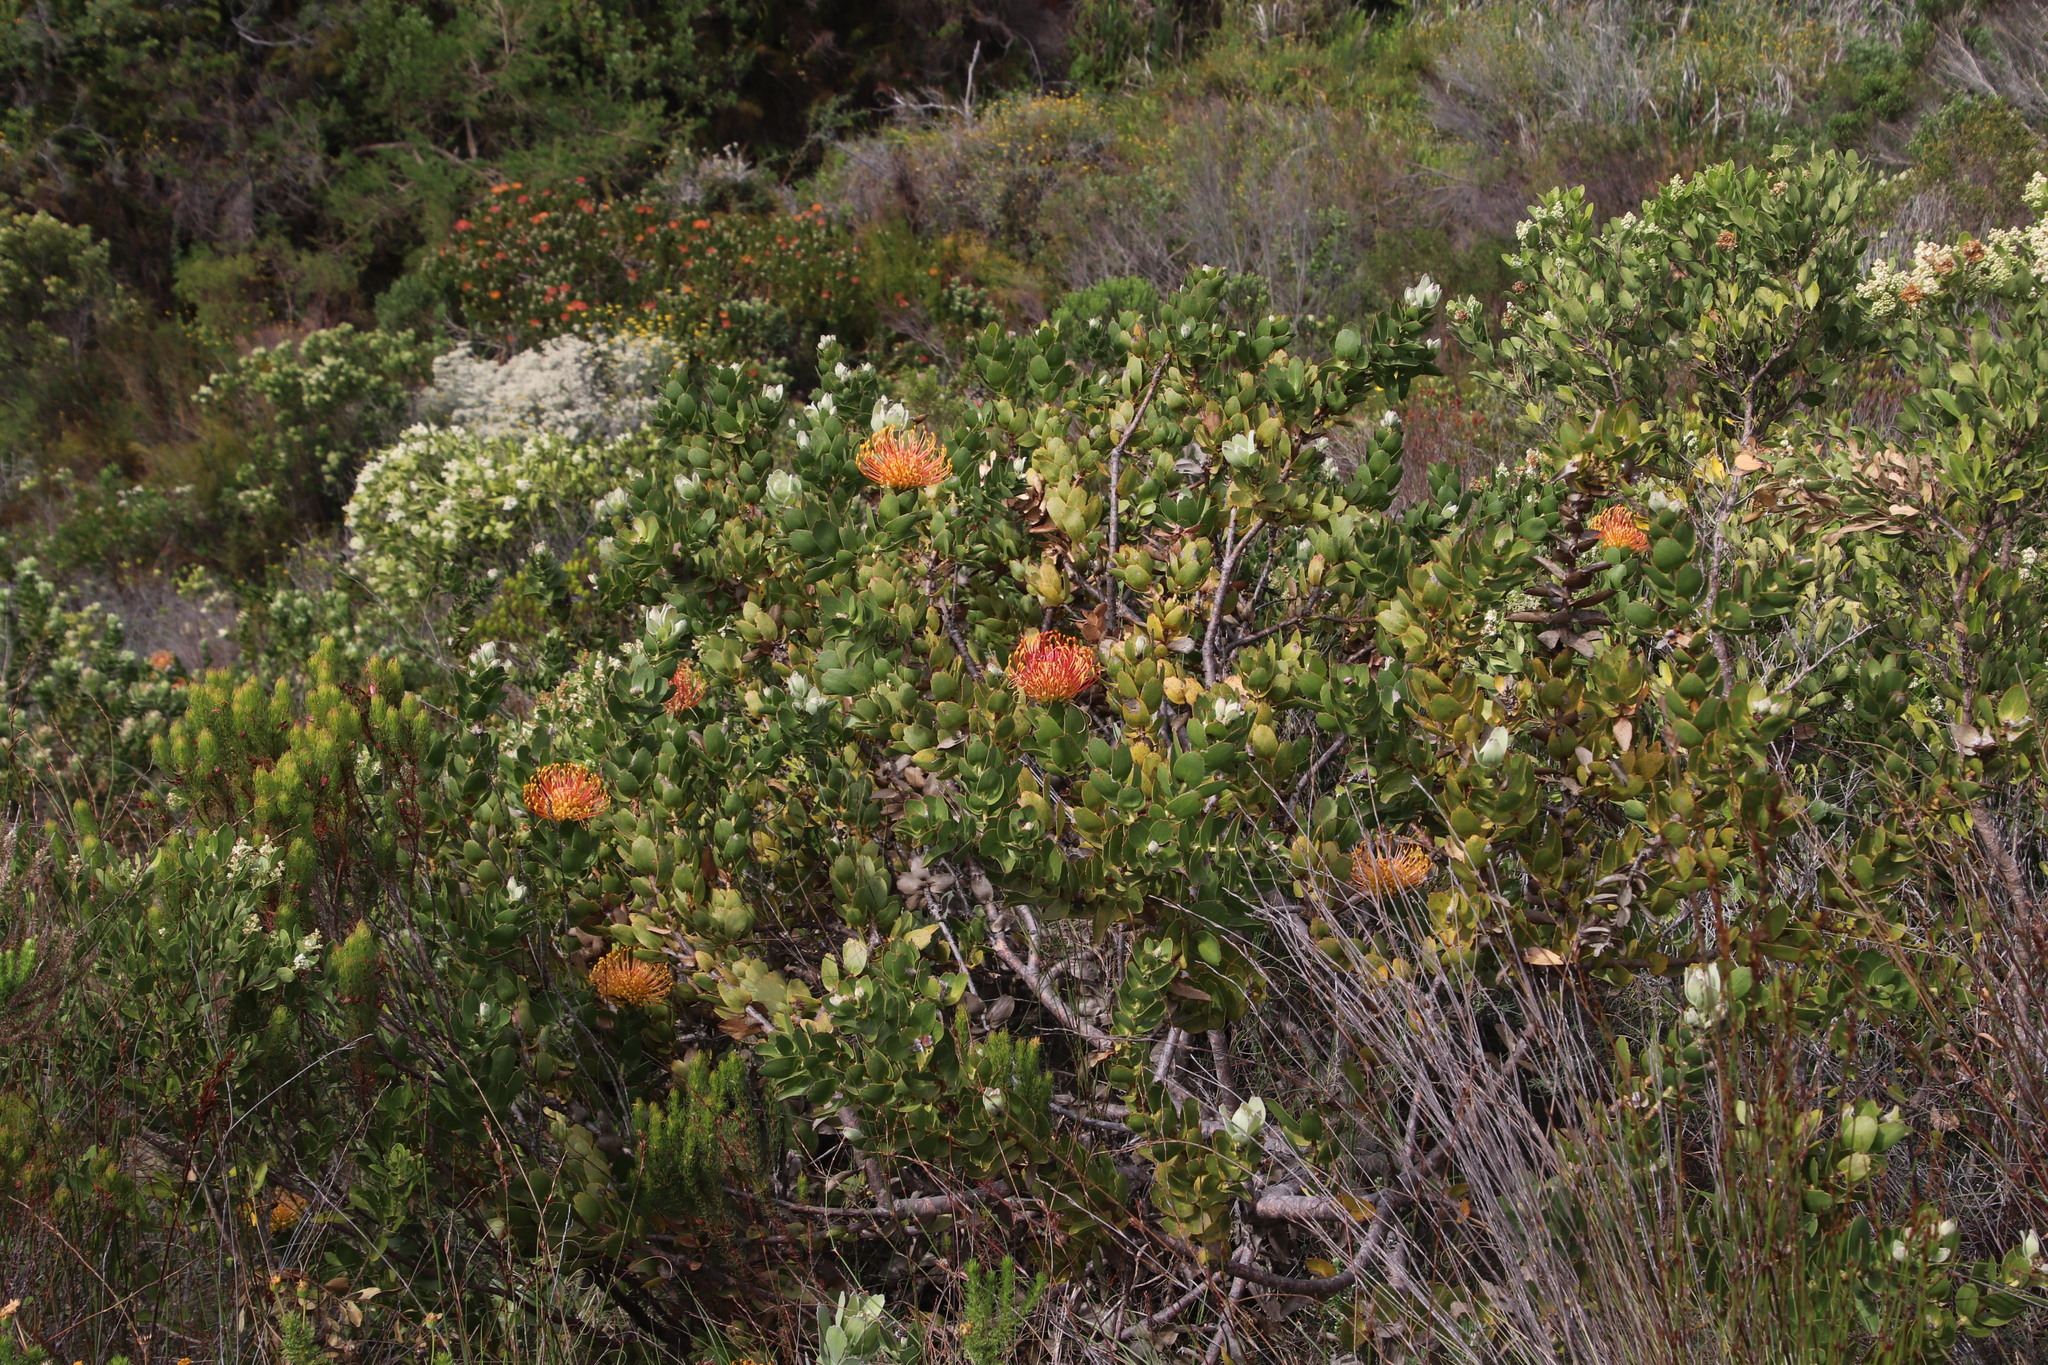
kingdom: Plantae
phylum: Tracheophyta
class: Magnoliopsida
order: Proteales
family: Proteaceae
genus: Leucospermum
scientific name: Leucospermum patersonii
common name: False tree pincushion
